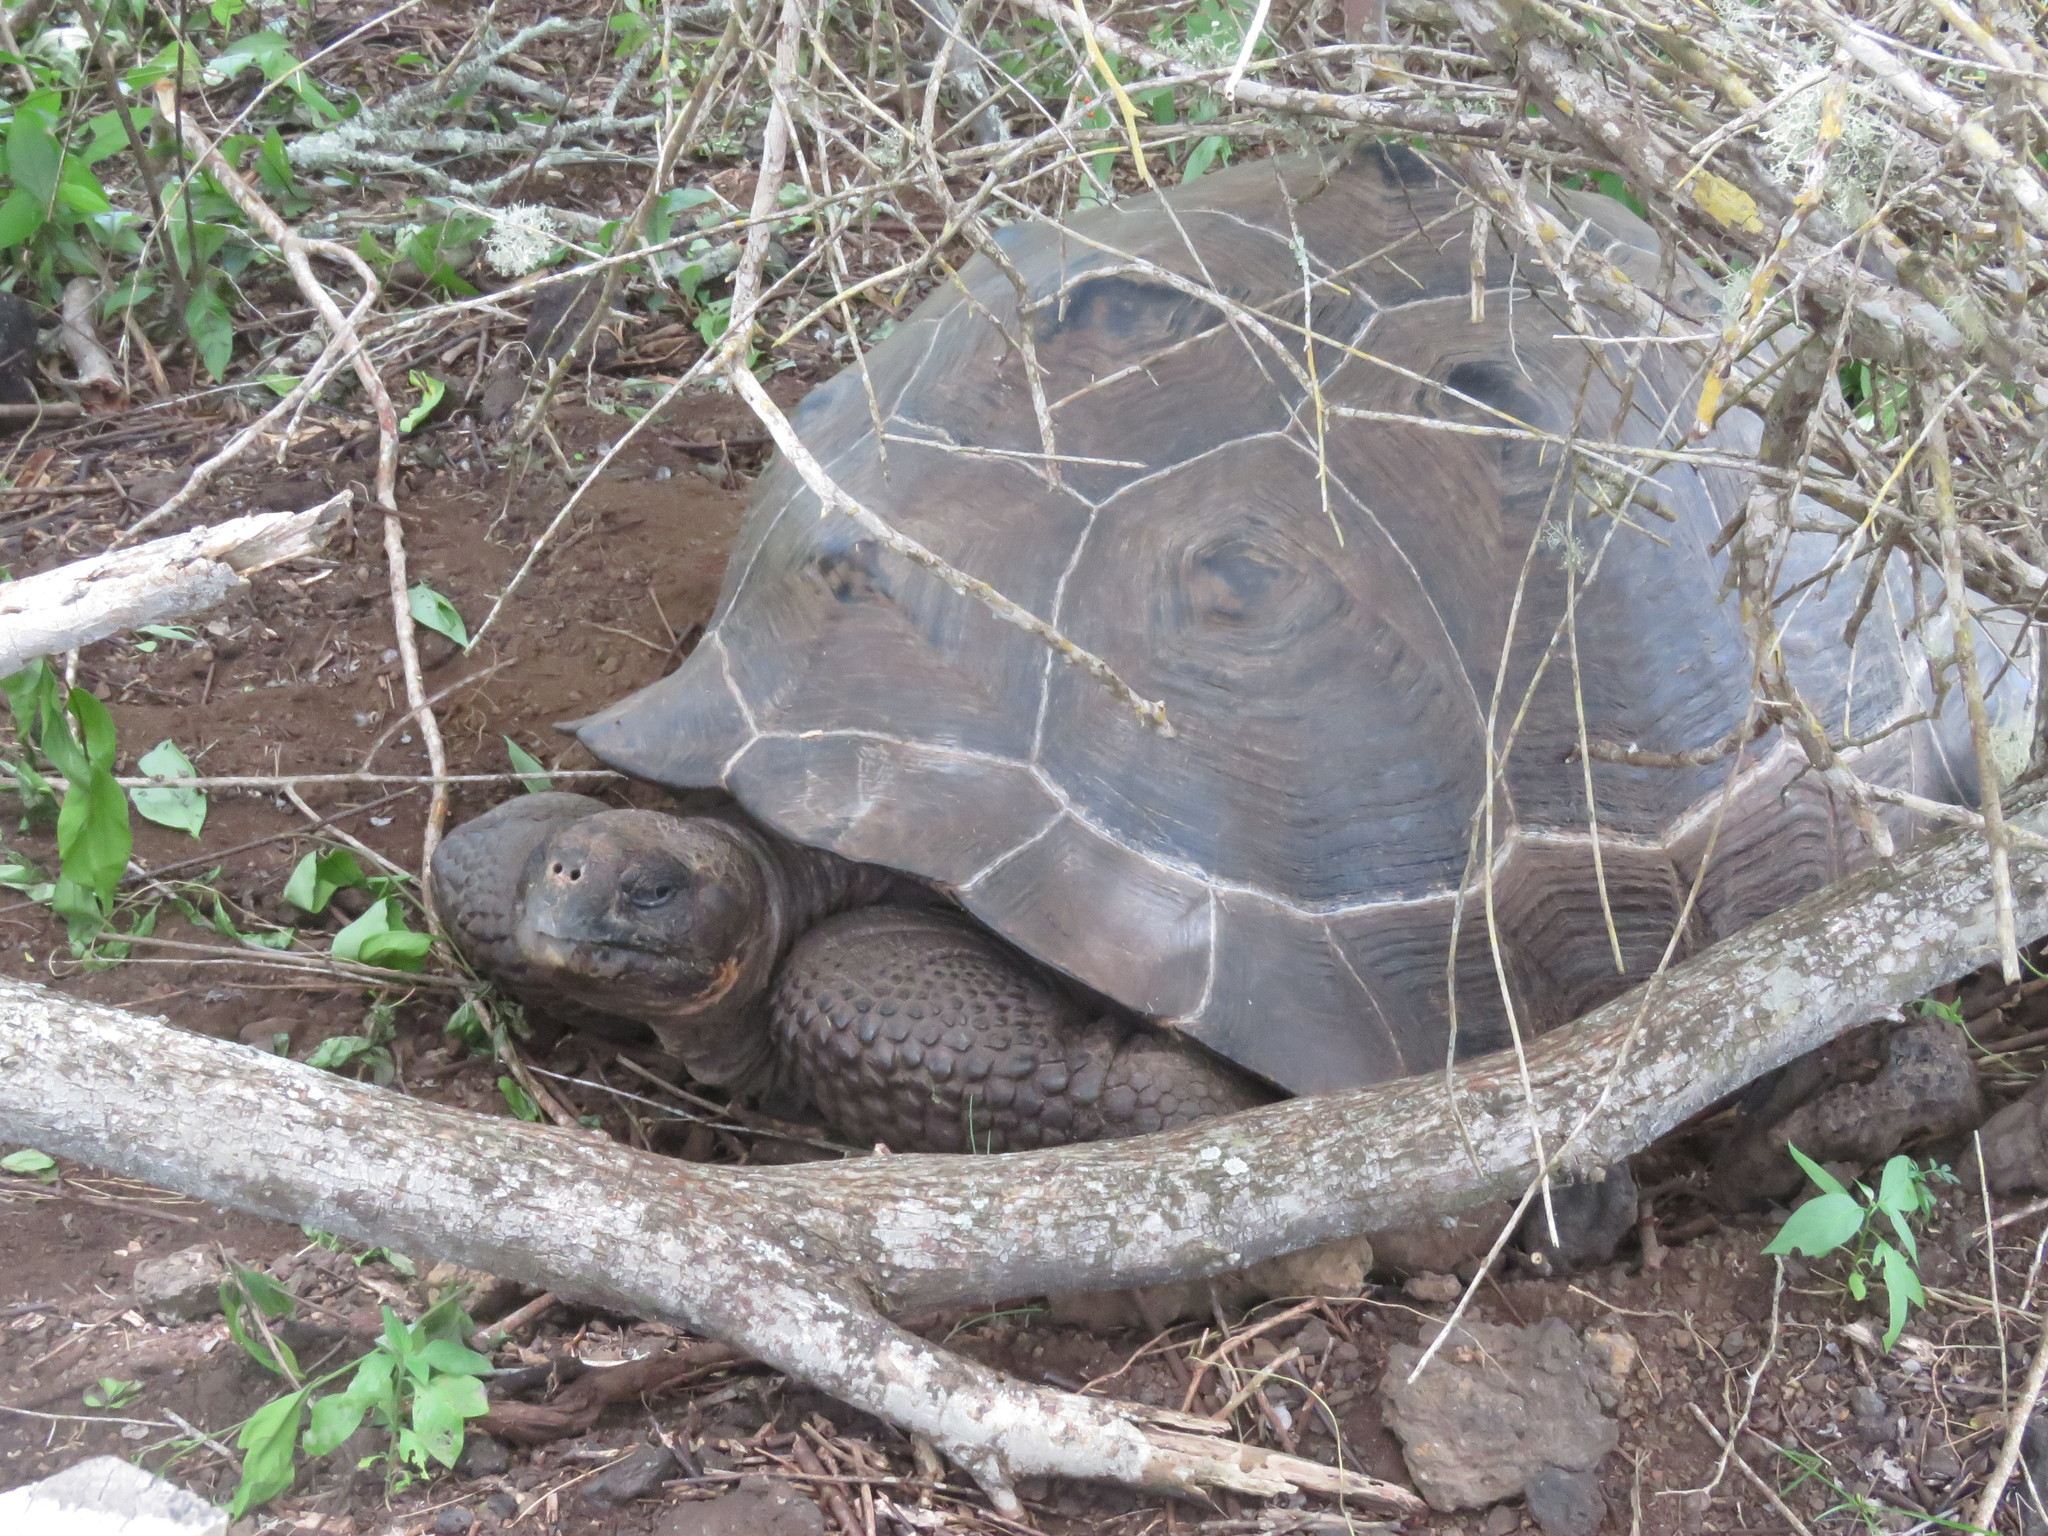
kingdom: Animalia
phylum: Chordata
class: Testudines
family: Testudinidae
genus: Chelonoidis
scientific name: Chelonoidis guntheri
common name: Sierra negra giant tortoise
